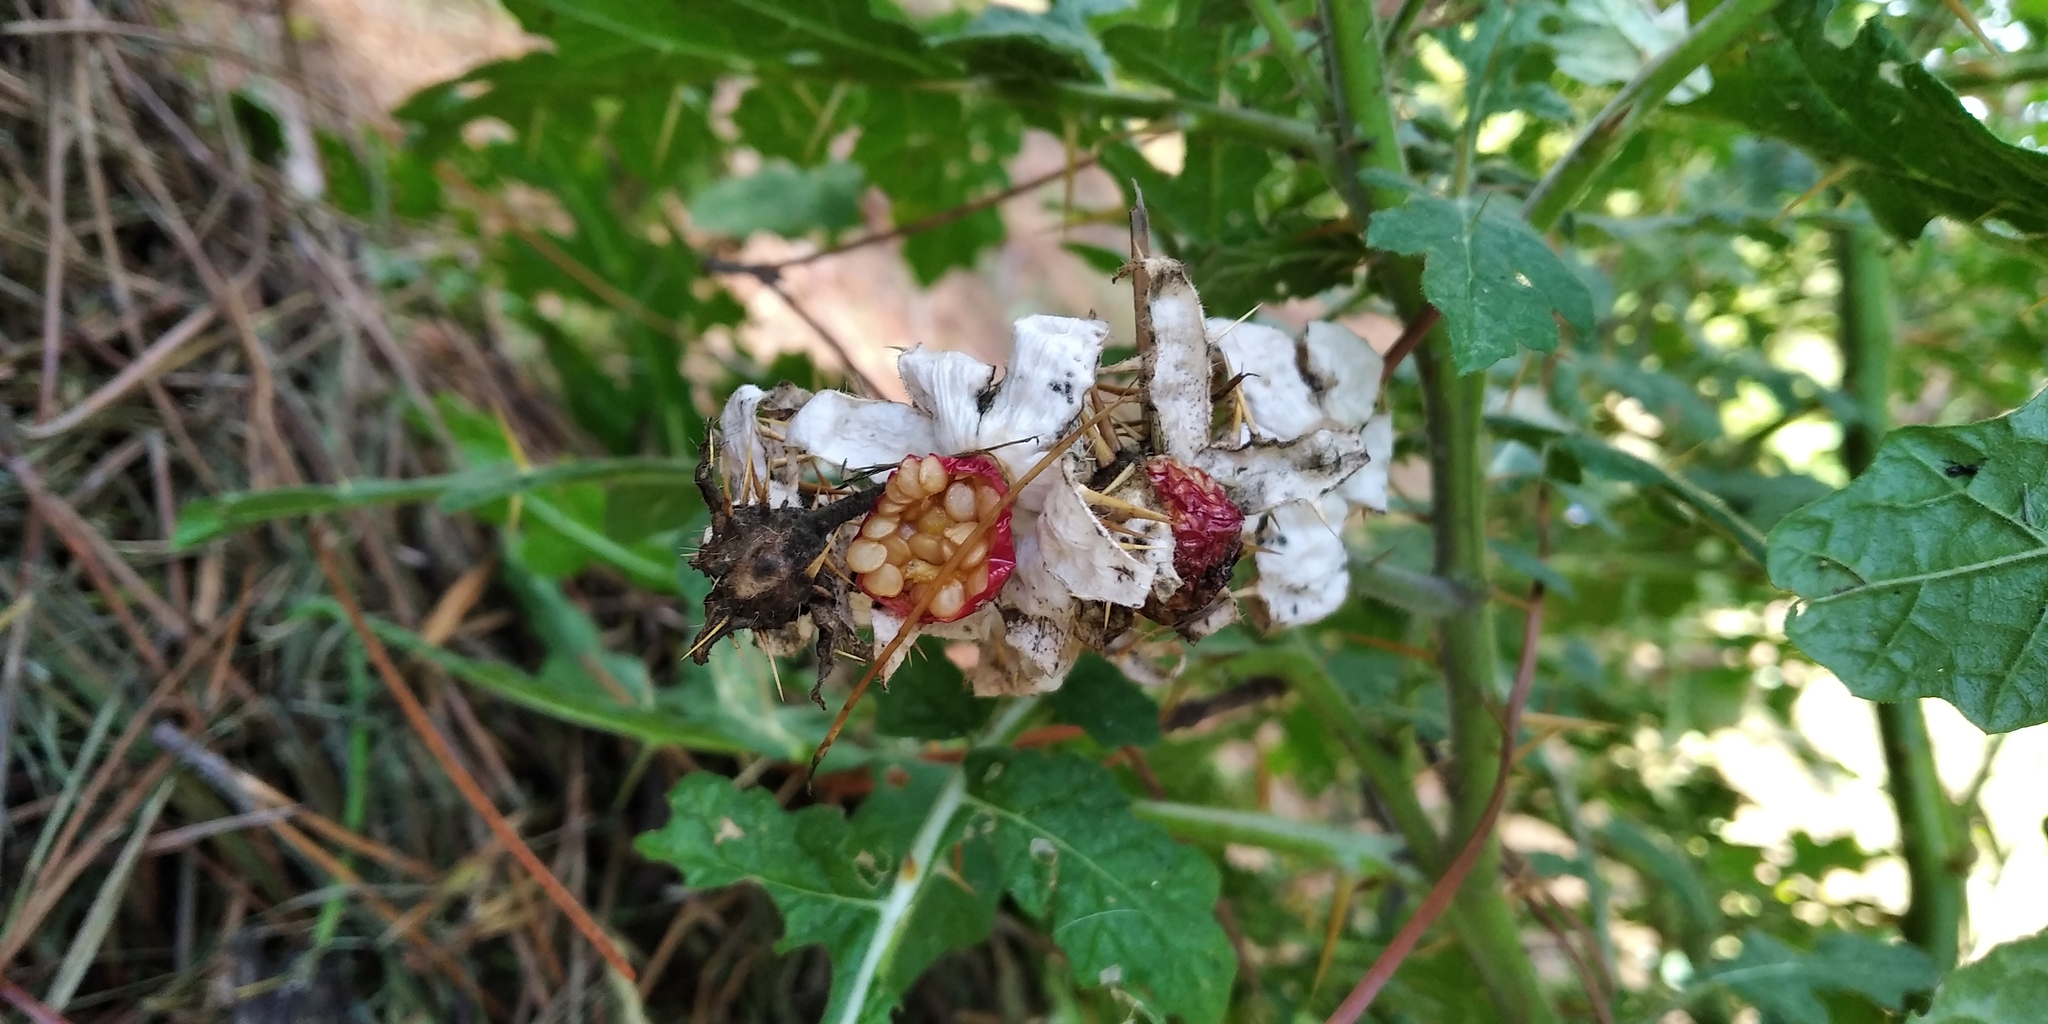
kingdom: Plantae
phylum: Tracheophyta
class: Magnoliopsida
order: Solanales
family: Solanaceae
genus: Solanum
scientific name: Solanum sisymbriifolium
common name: Red buffalo-bur
